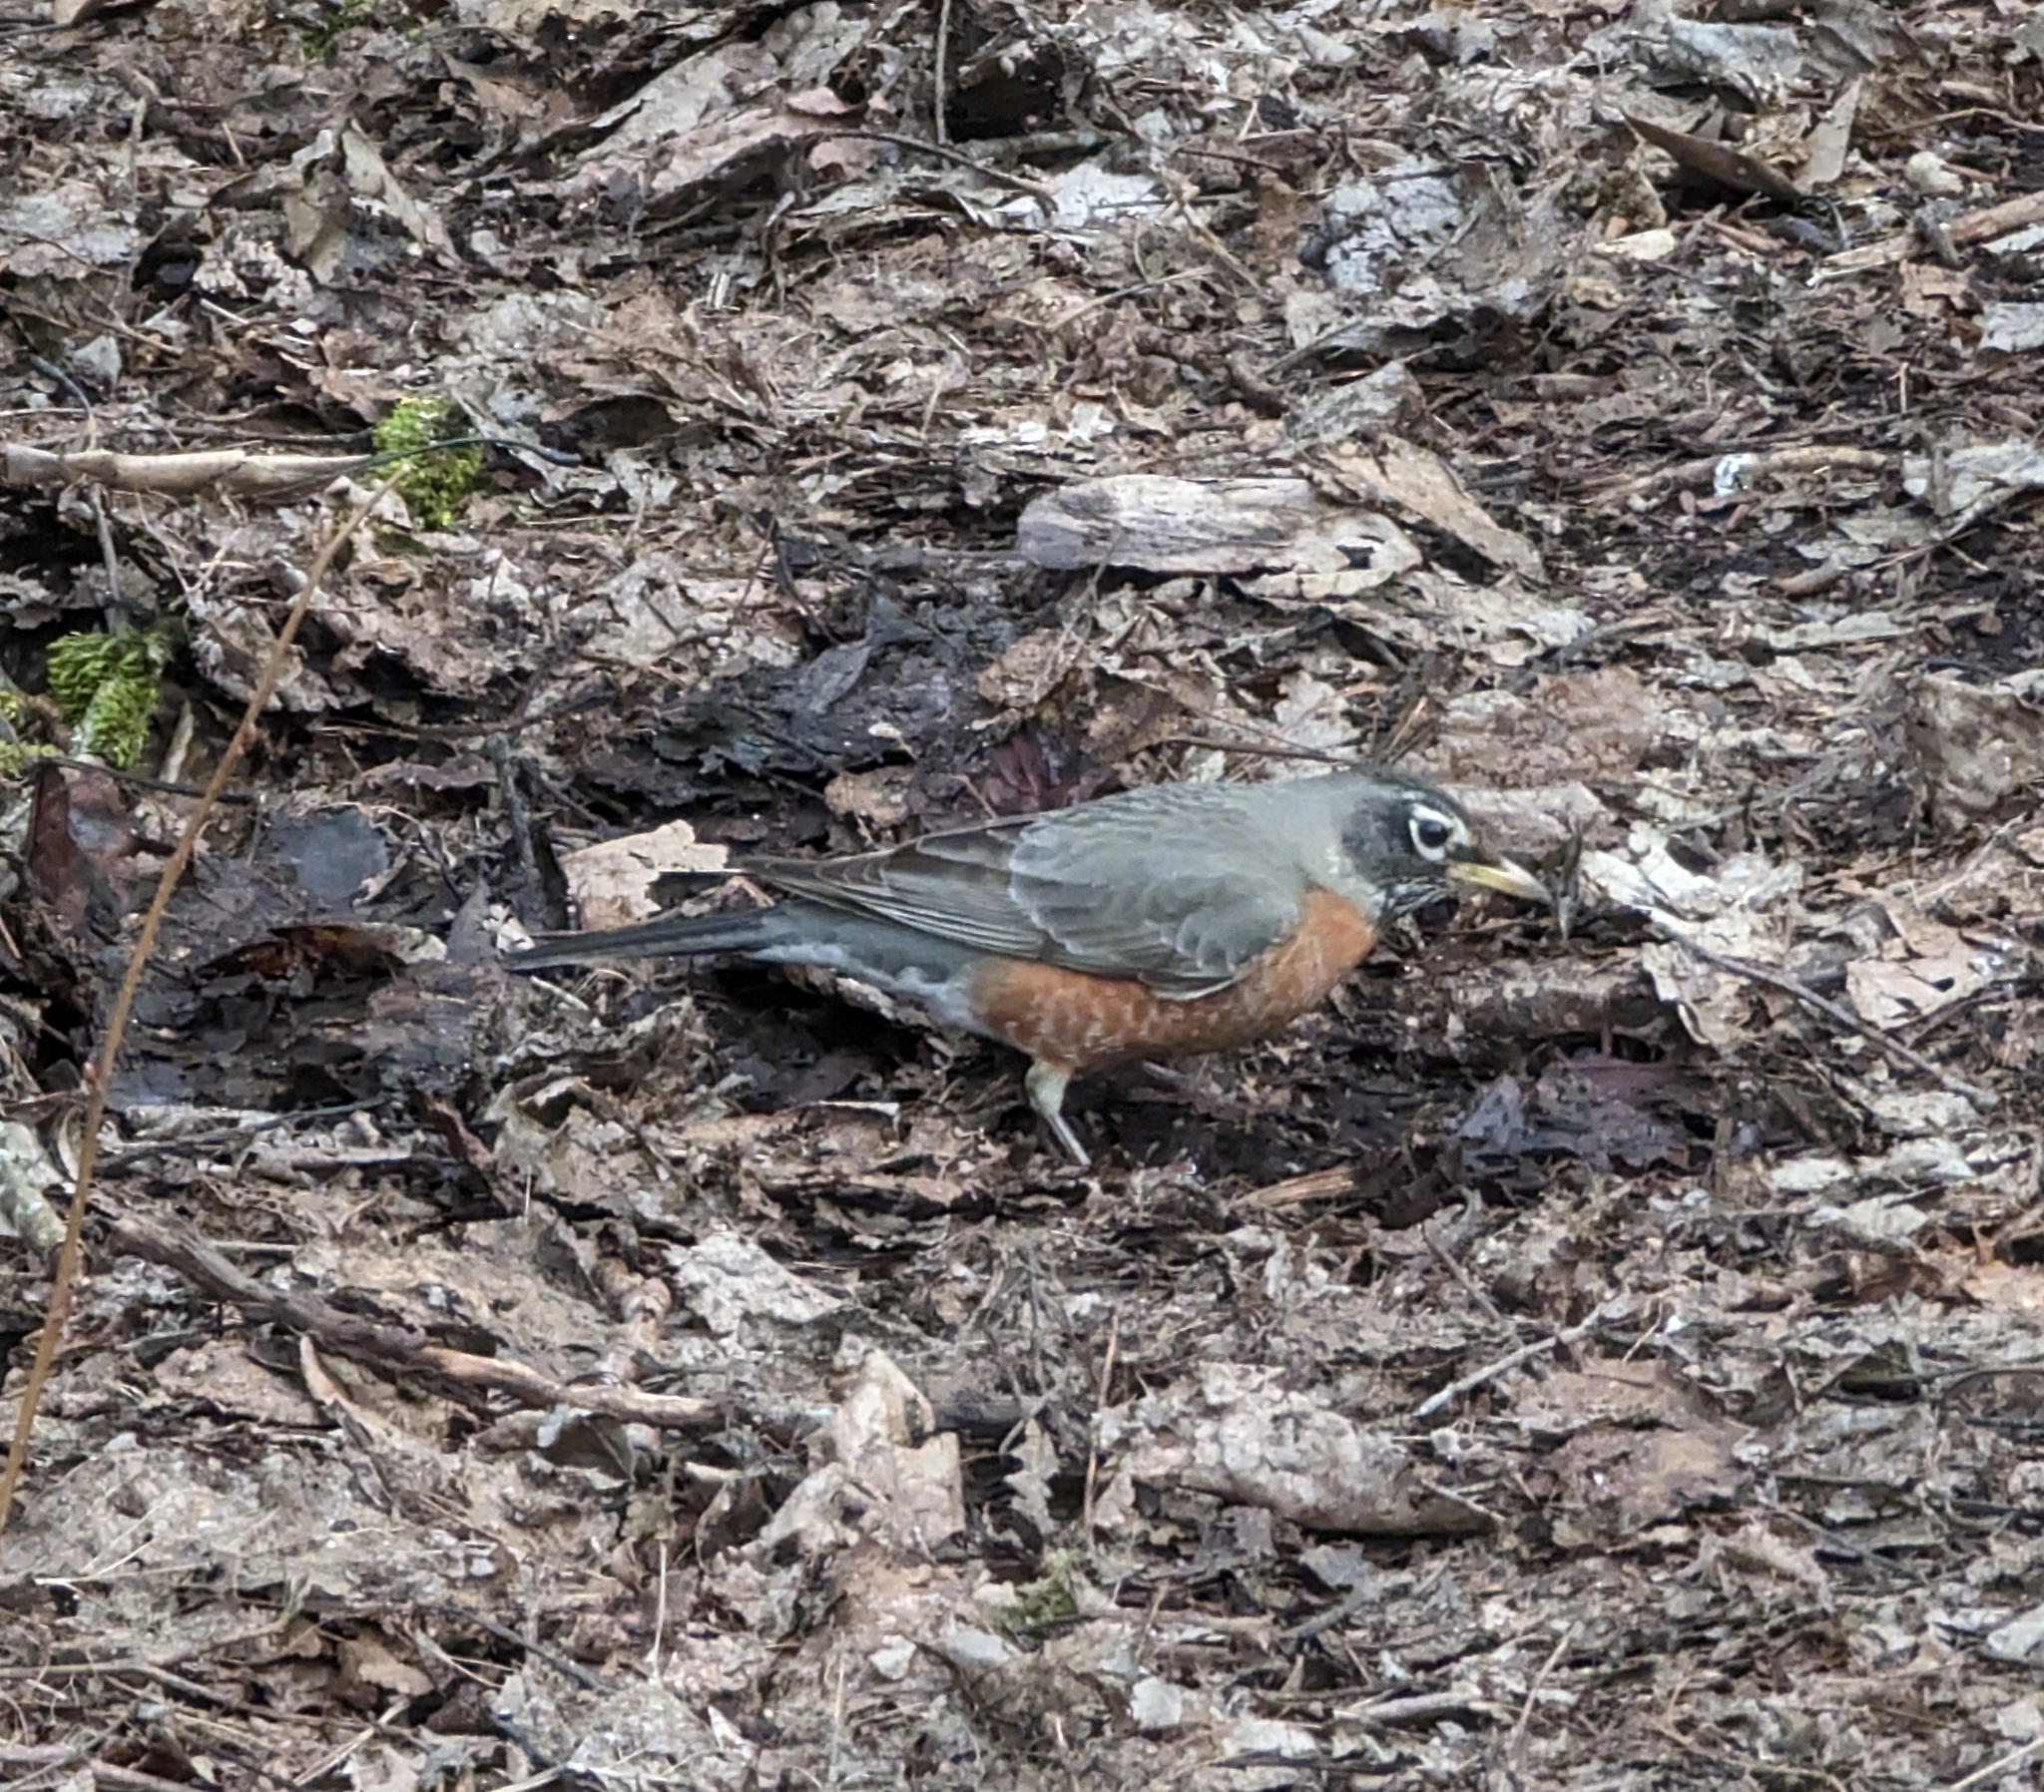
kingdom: Animalia
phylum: Chordata
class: Aves
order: Passeriformes
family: Turdidae
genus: Turdus
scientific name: Turdus migratorius
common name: American robin
